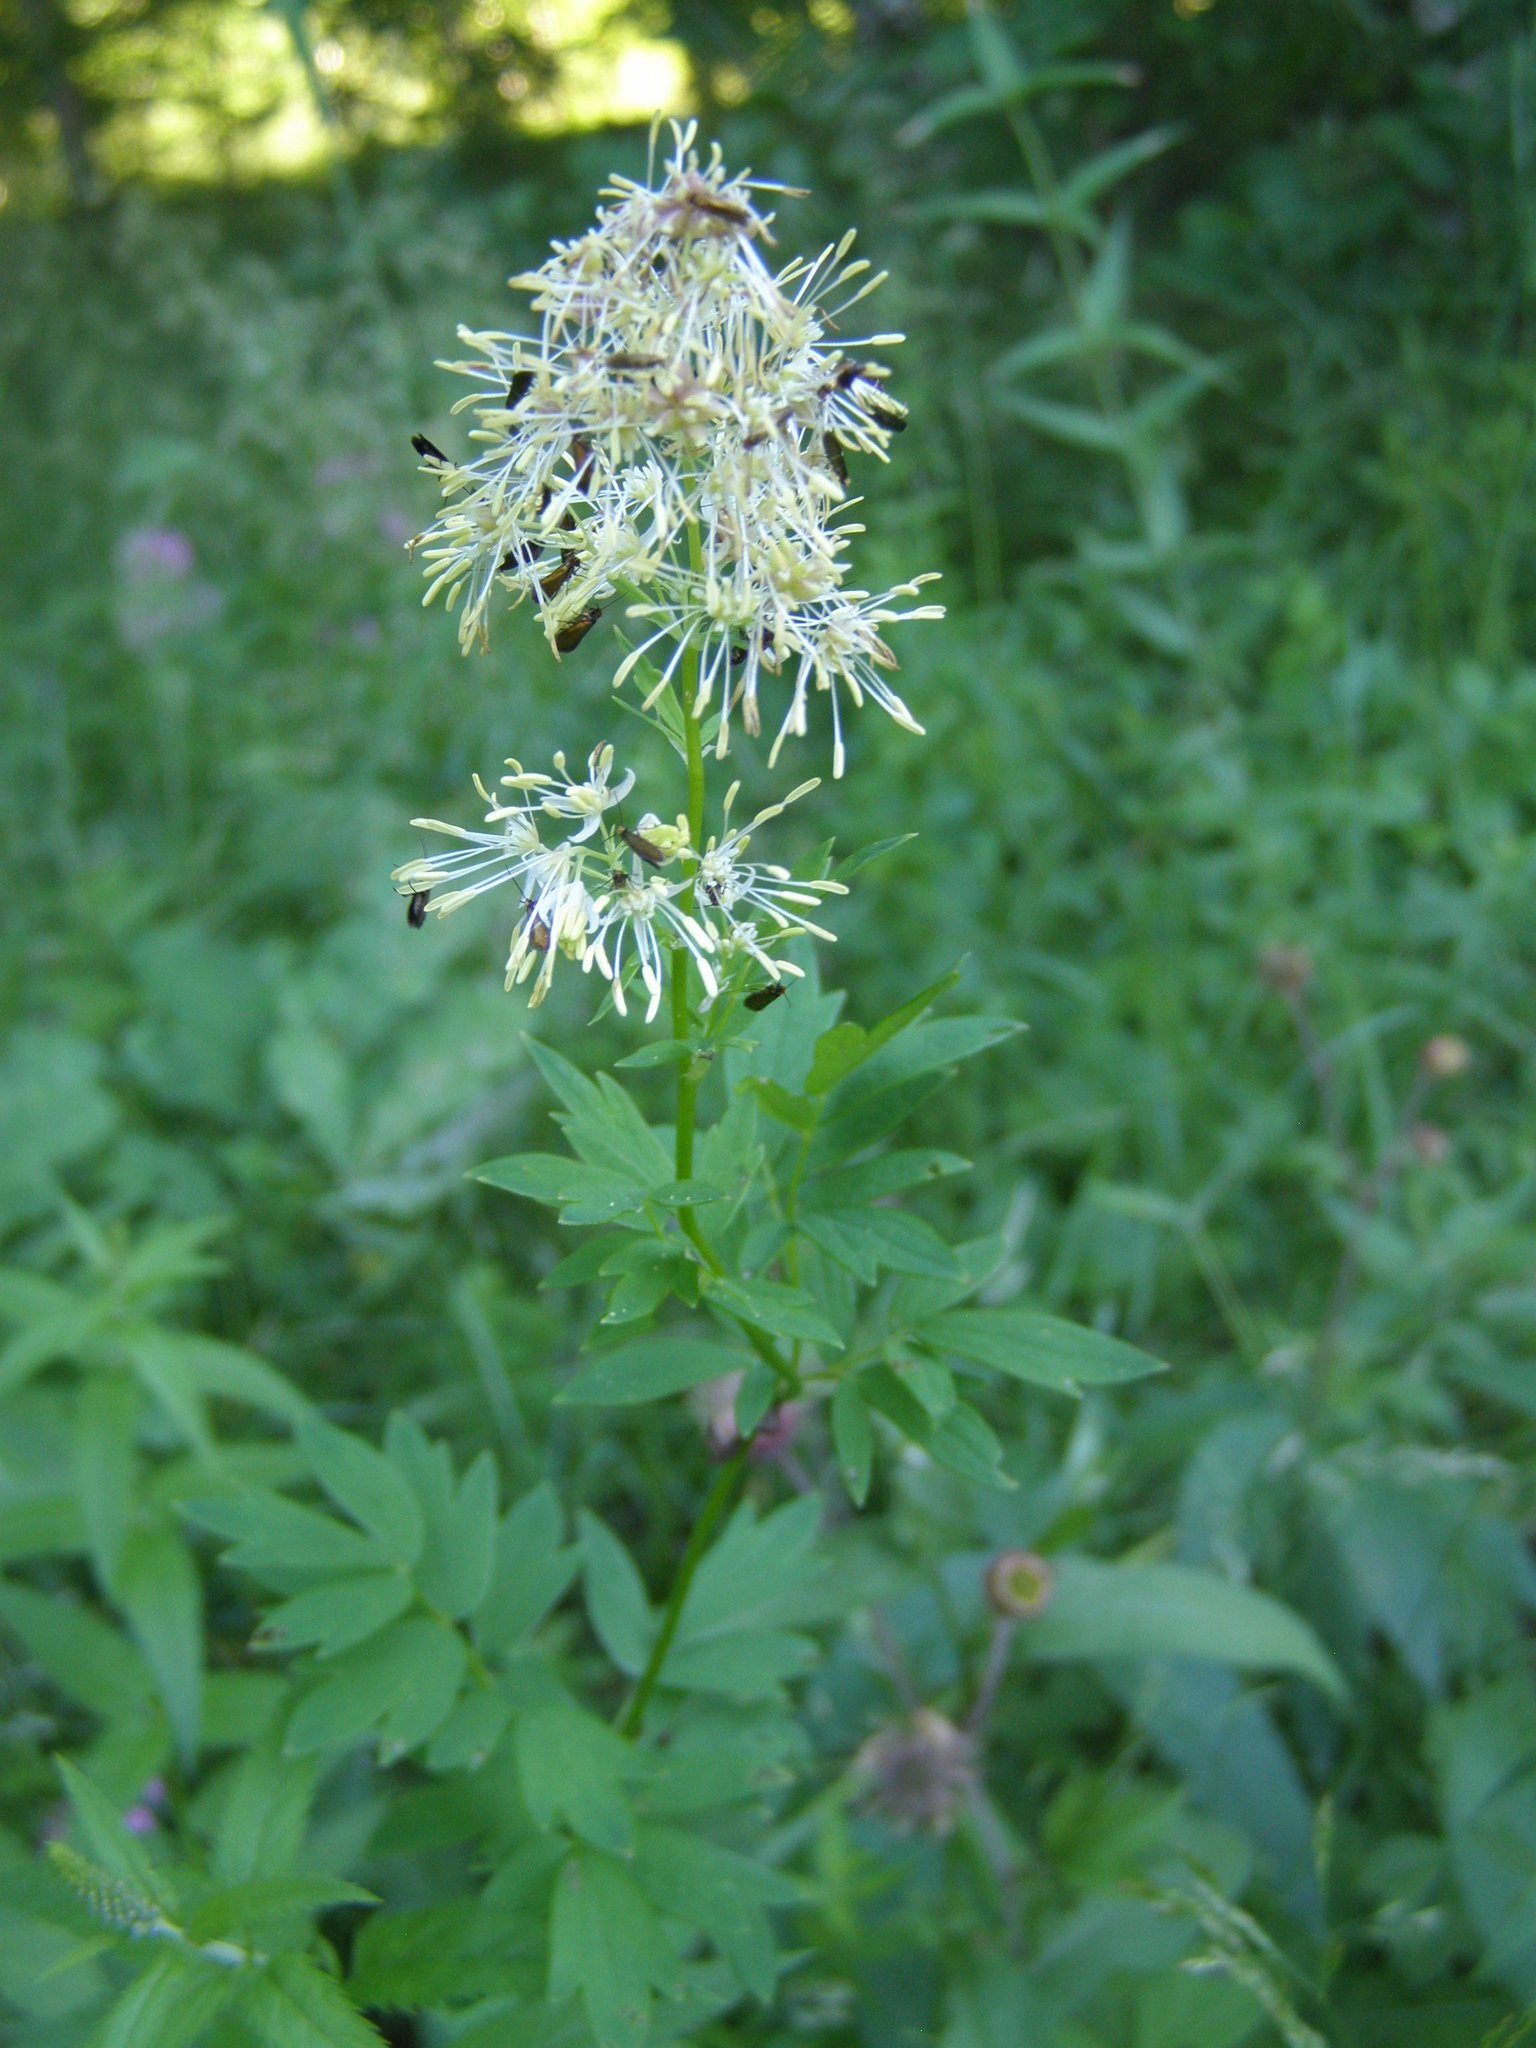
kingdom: Plantae
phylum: Tracheophyta
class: Magnoliopsida
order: Ranunculales
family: Ranunculaceae
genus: Thalictrum
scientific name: Thalictrum flavum
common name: Common meadow-rue
